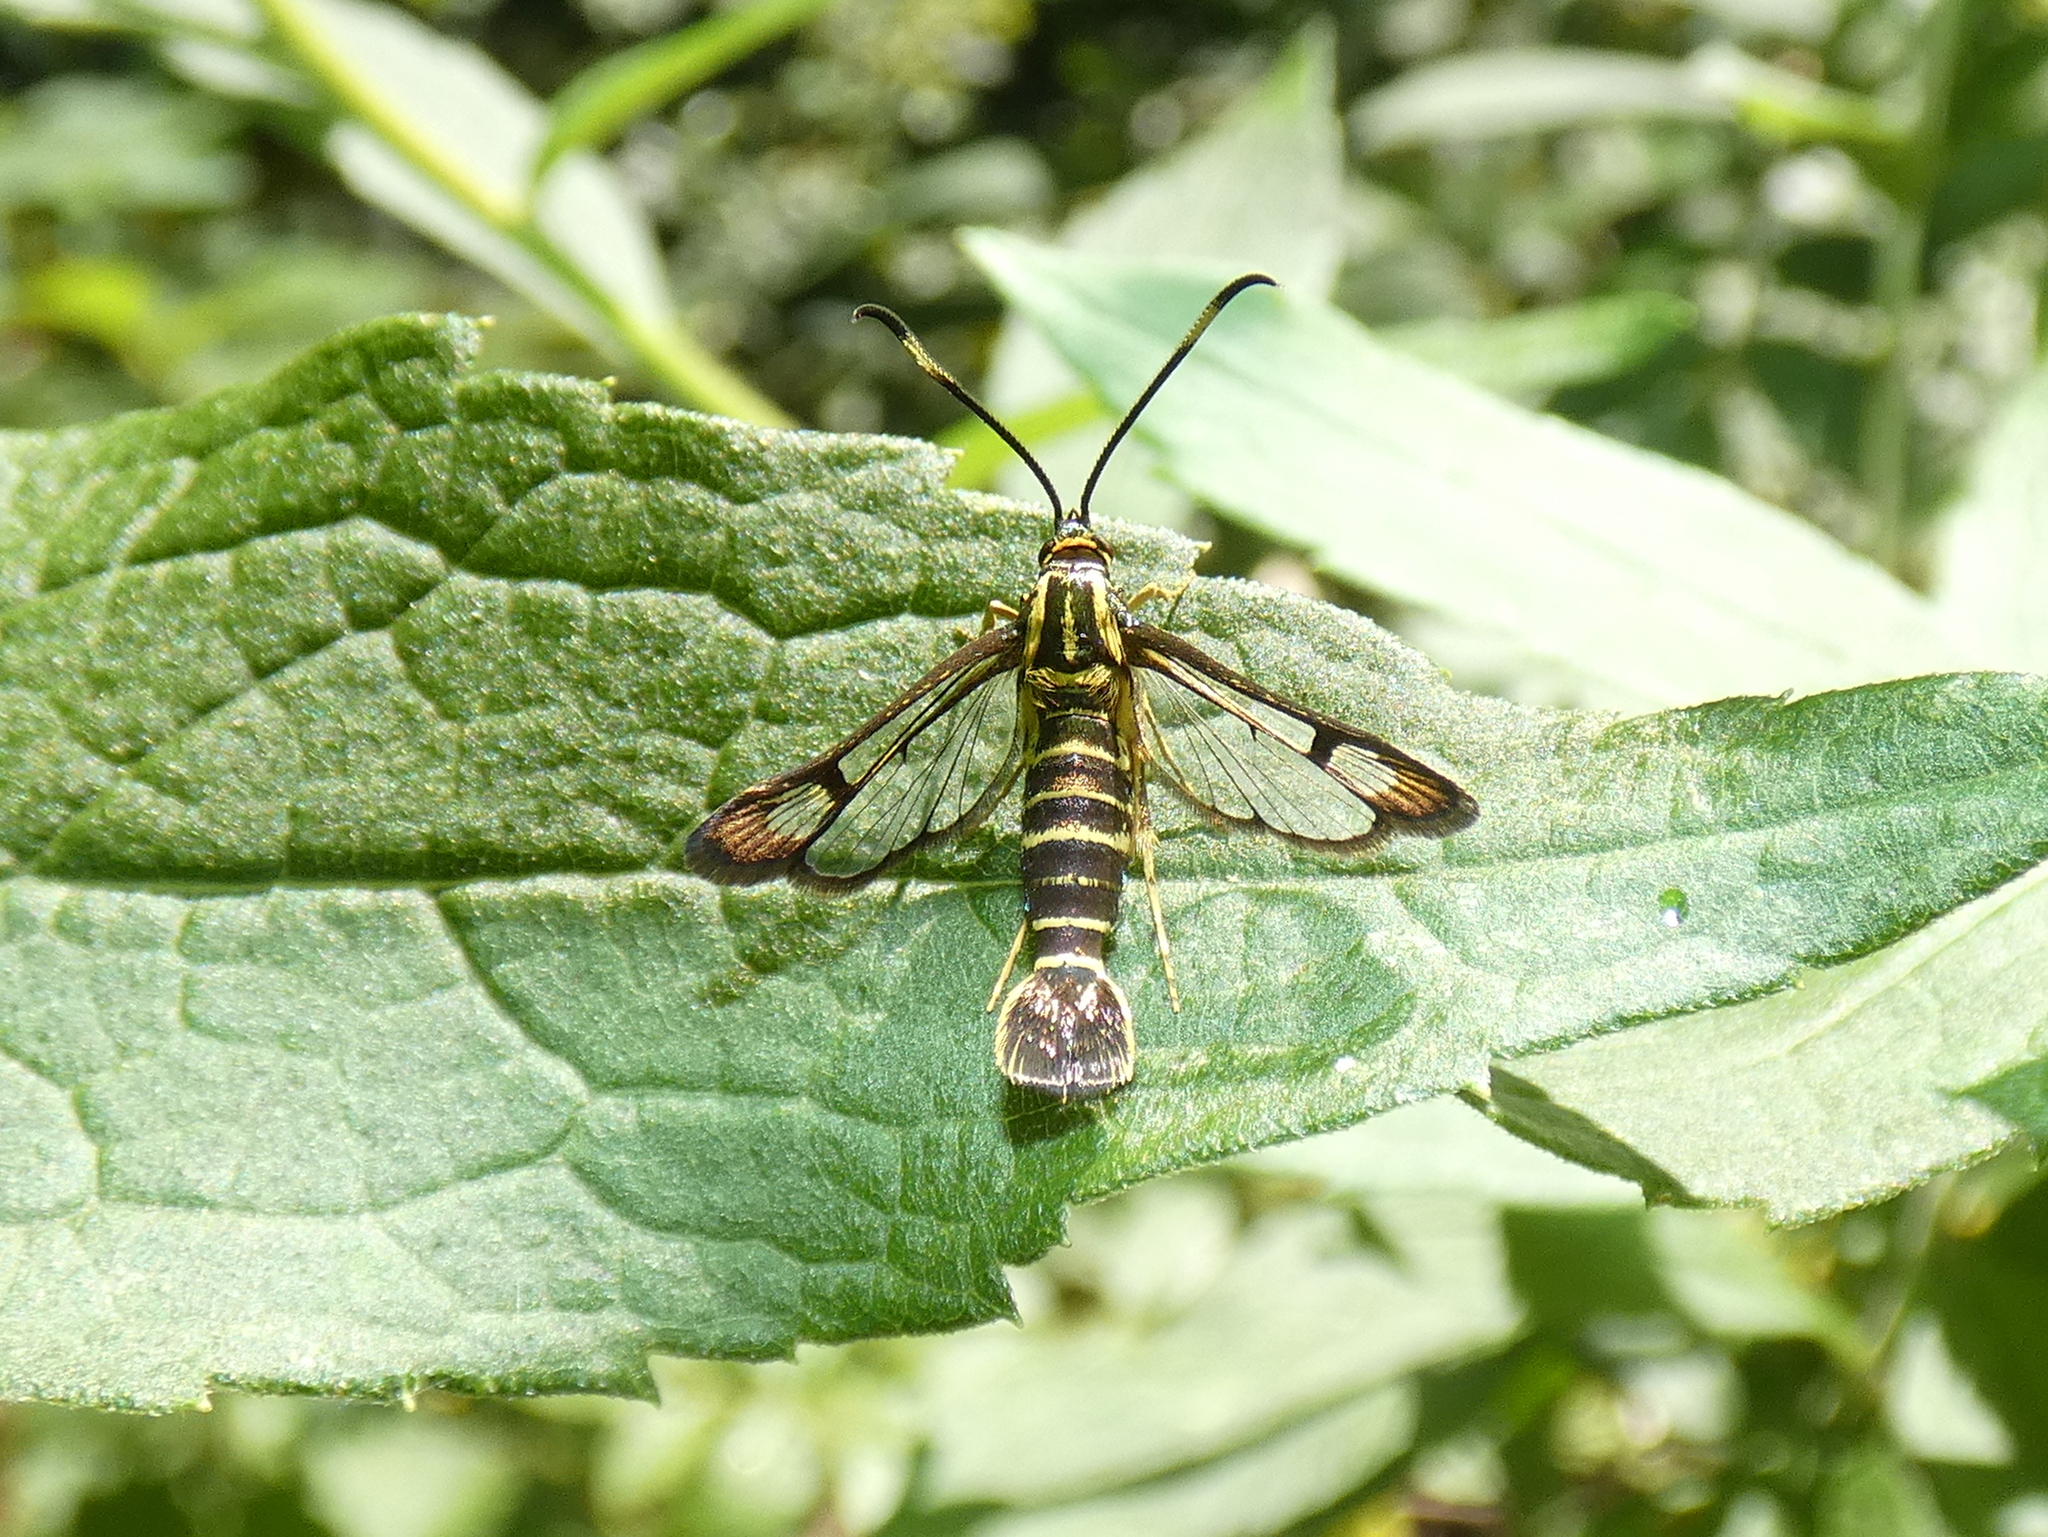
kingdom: Animalia
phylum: Arthropoda
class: Insecta
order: Lepidoptera
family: Sesiidae
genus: Carmenta
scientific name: Carmenta bassiformis
